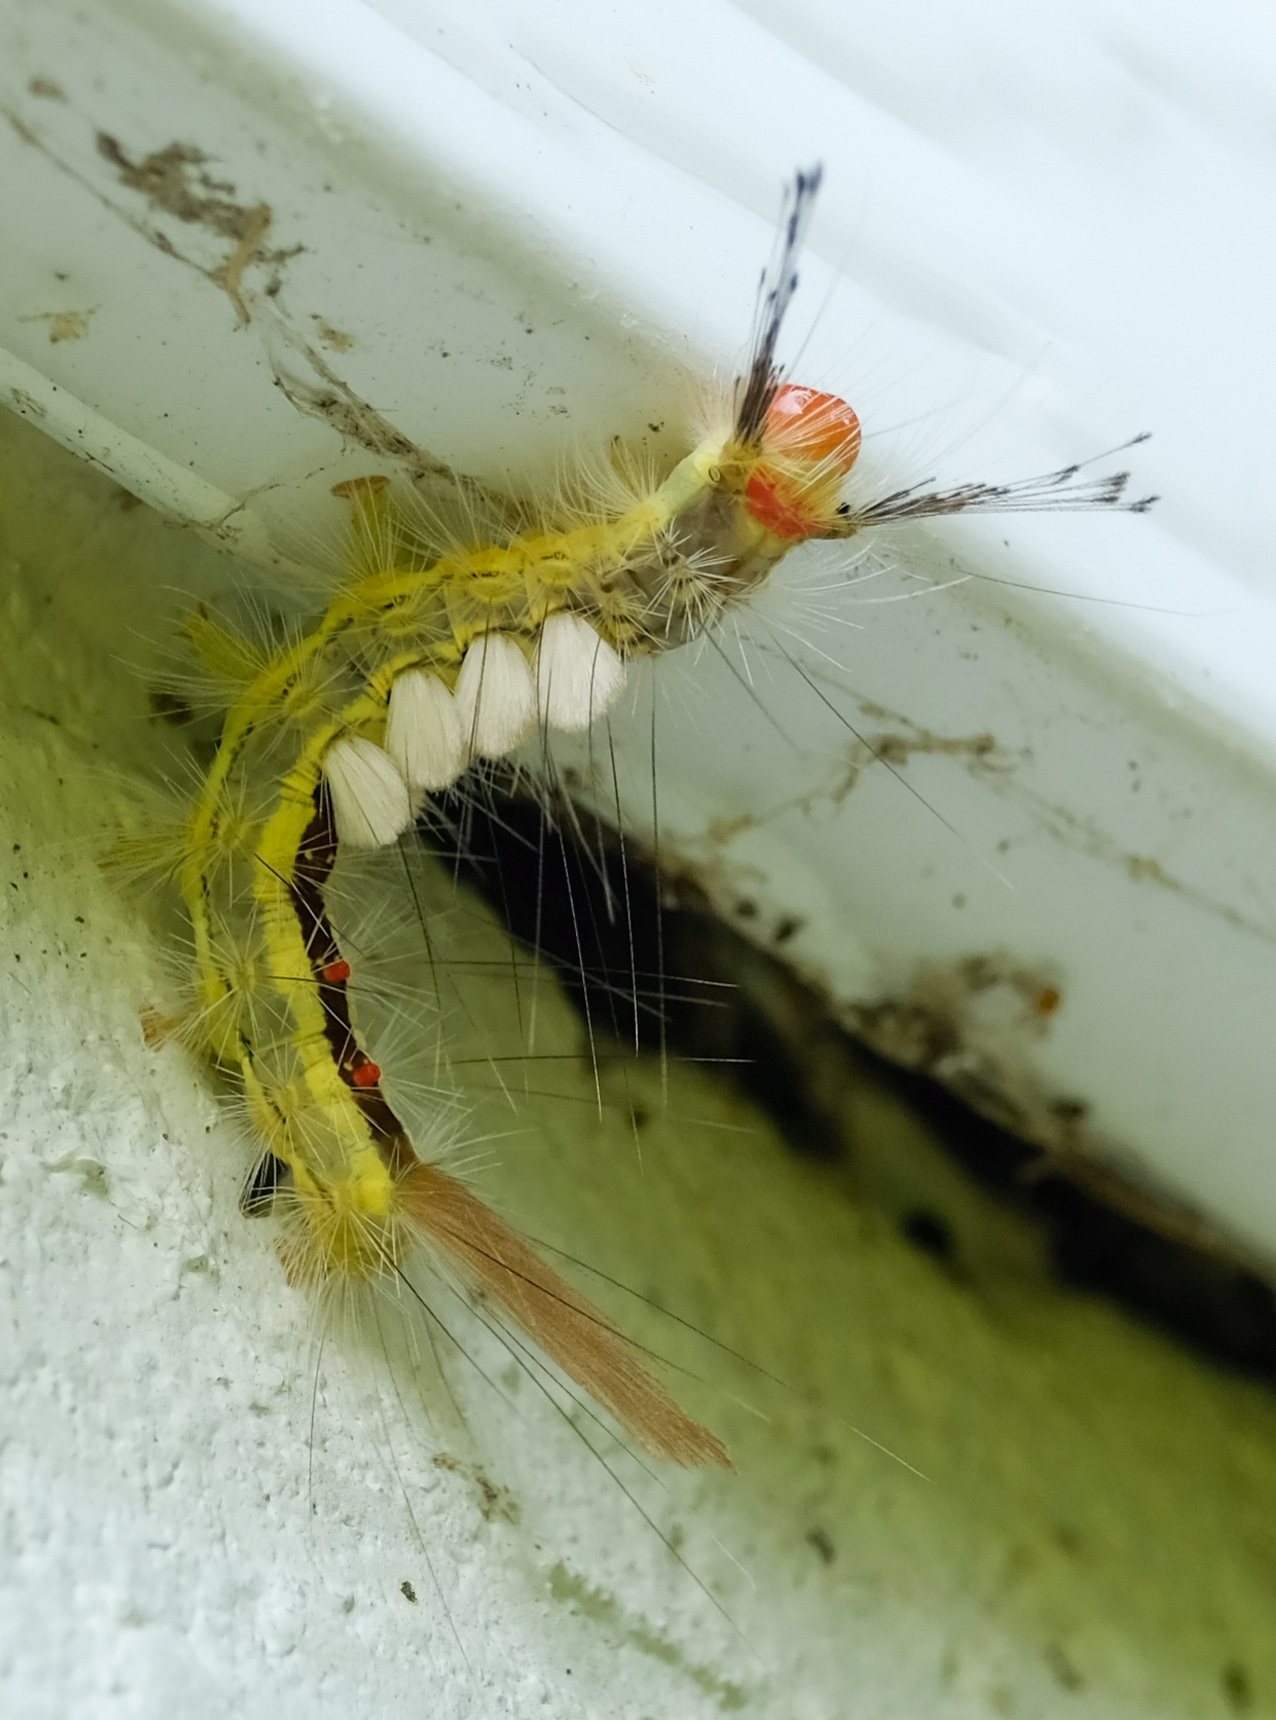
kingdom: Animalia
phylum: Arthropoda
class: Insecta
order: Lepidoptera
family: Erebidae
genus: Orgyia
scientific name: Orgyia leucostigma
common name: White-marked tussock moth
